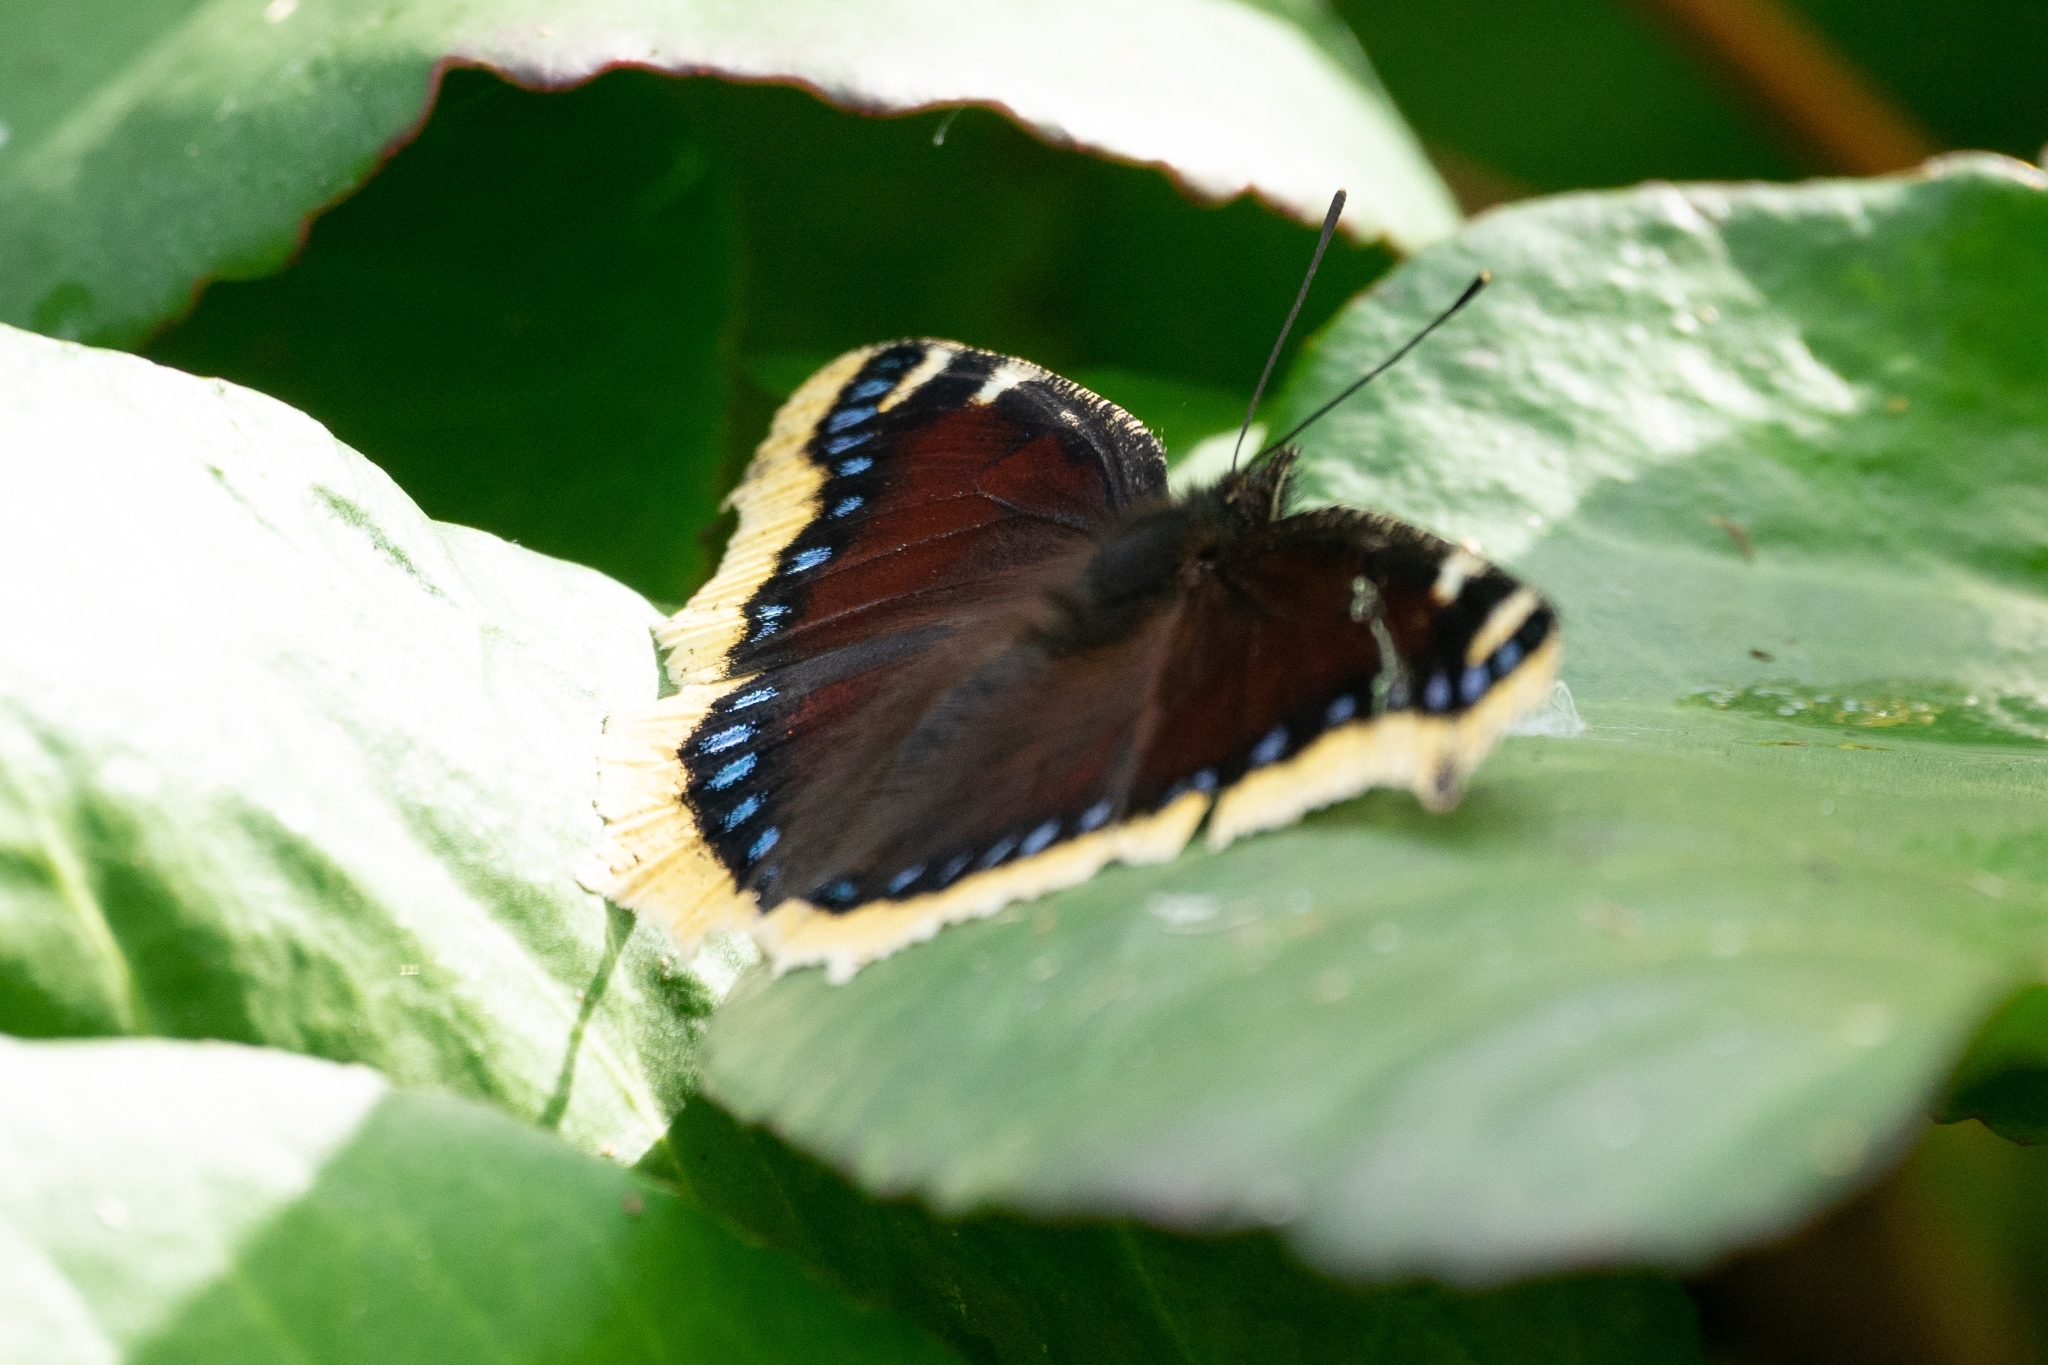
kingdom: Animalia
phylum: Arthropoda
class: Insecta
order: Lepidoptera
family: Nymphalidae
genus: Nymphalis
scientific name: Nymphalis antiopa
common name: Camberwell beauty
